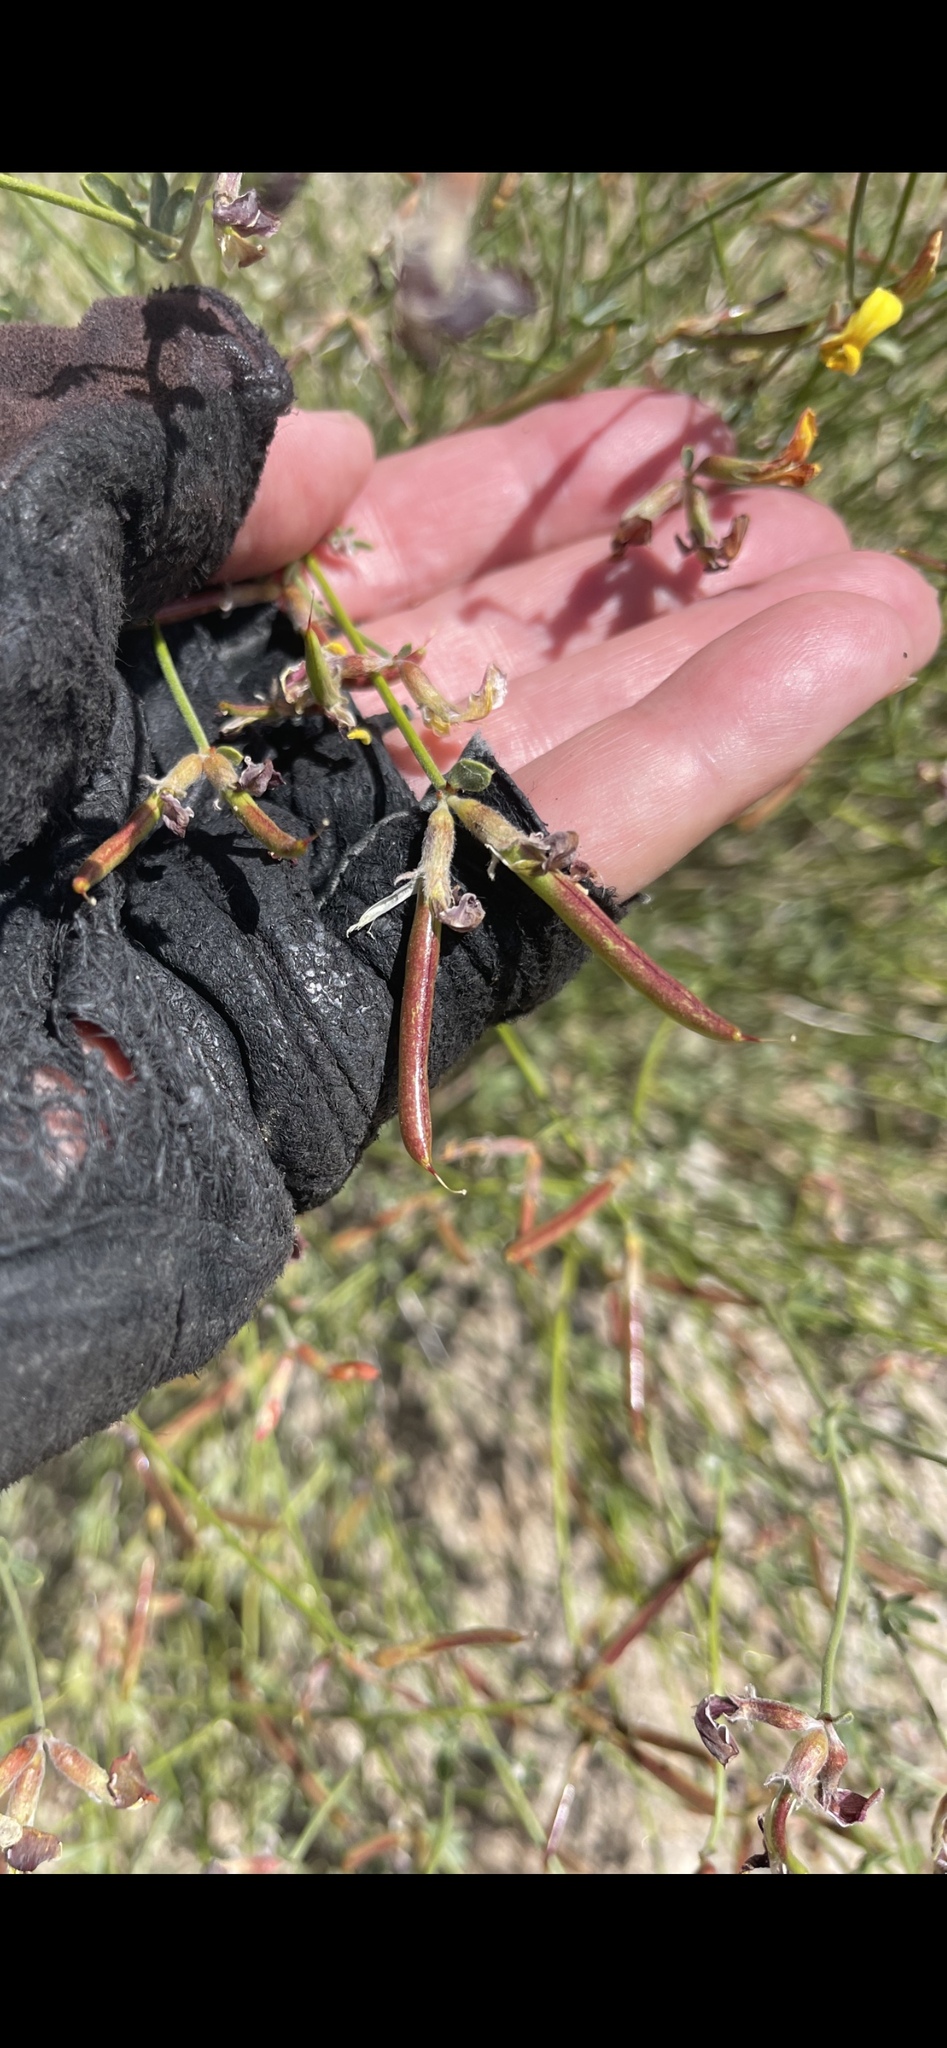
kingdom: Plantae
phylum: Tracheophyta
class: Magnoliopsida
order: Fabales
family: Fabaceae
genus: Acmispon
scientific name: Acmispon rigidus
